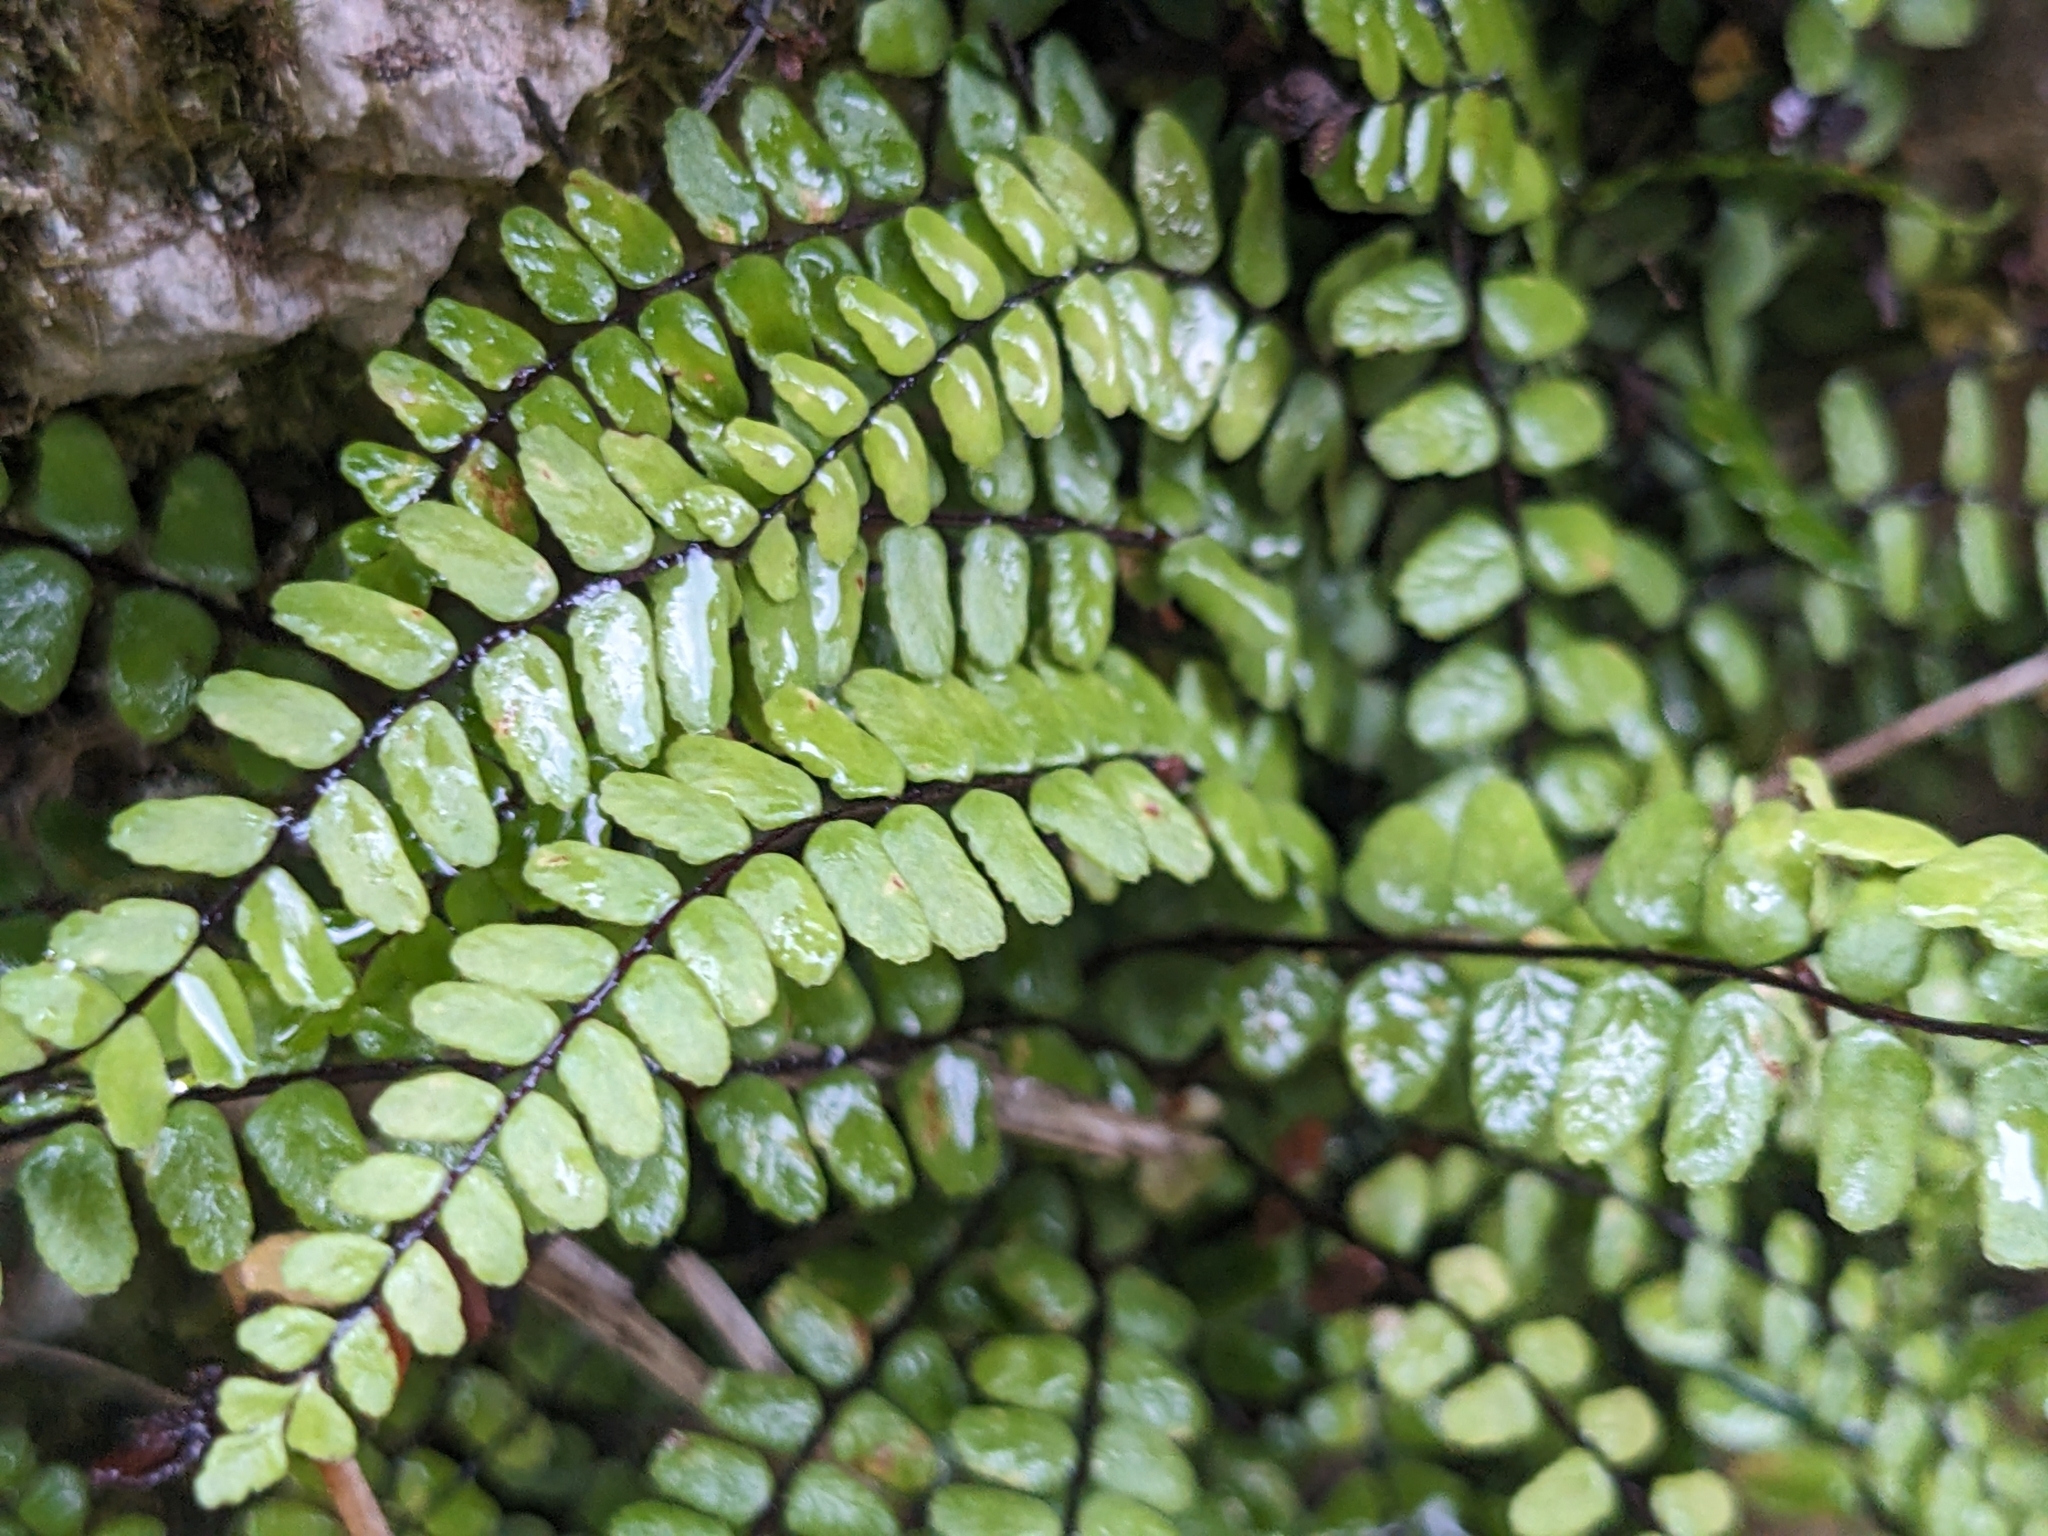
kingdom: Plantae
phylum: Tracheophyta
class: Polypodiopsida
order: Polypodiales
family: Aspleniaceae
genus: Asplenium
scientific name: Asplenium trichomanes
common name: Maidenhair spleenwort
